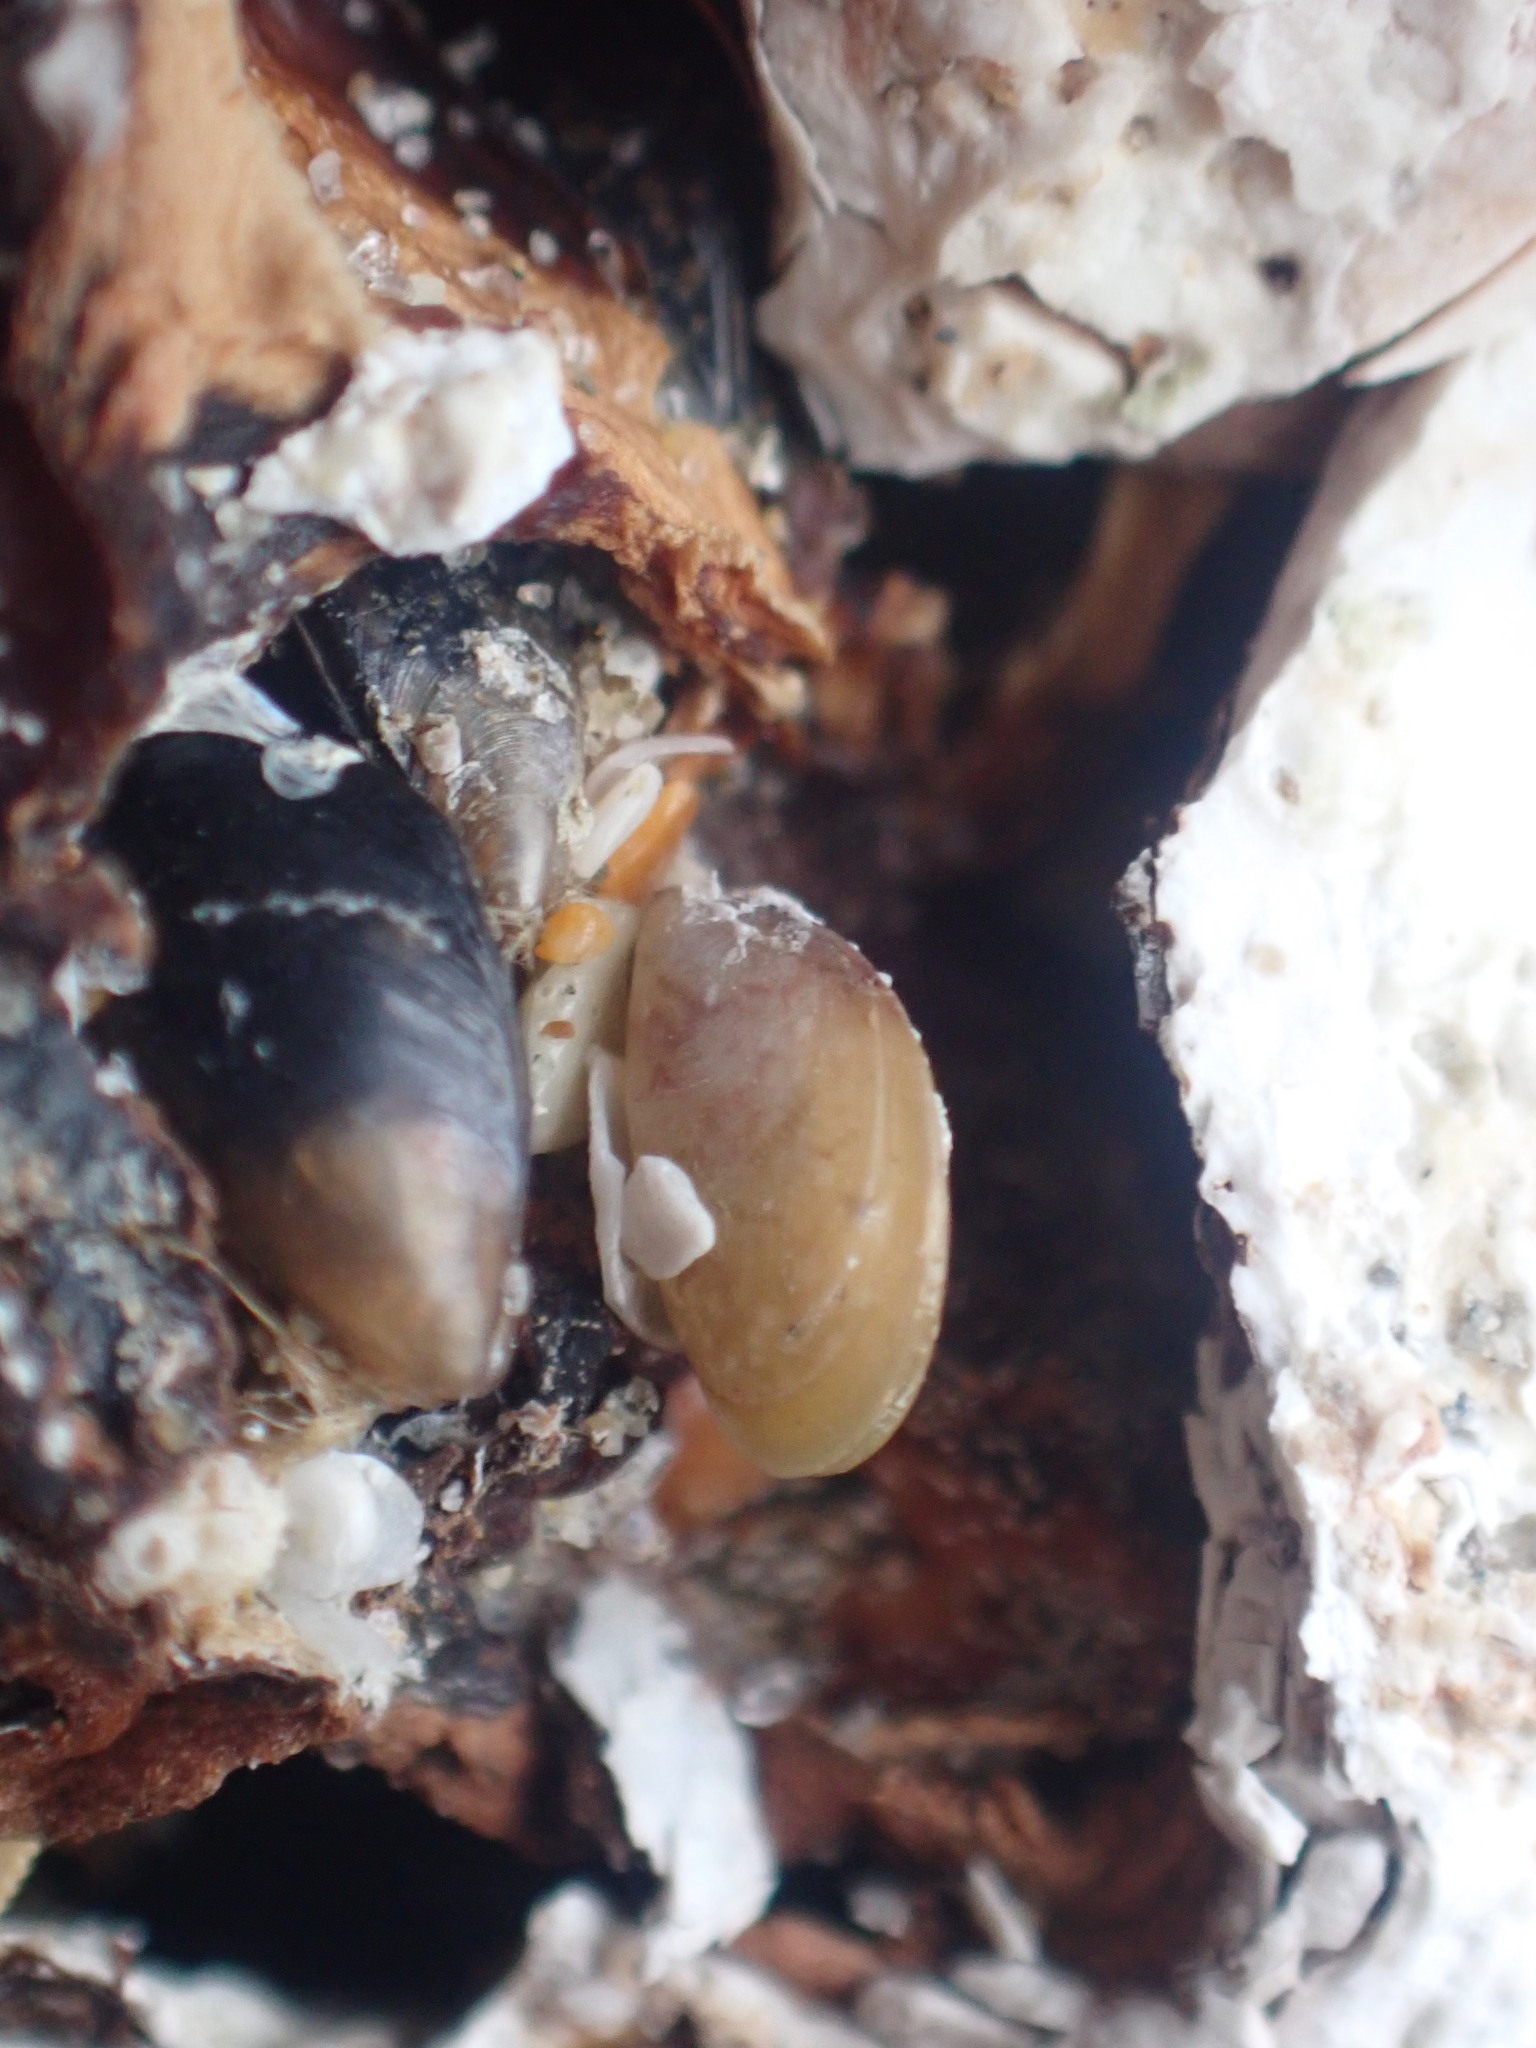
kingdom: Animalia
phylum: Mollusca
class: Bivalvia
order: Mytilida
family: Mytilidae
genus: Perna
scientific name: Perna canaliculus
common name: New zealand greenshelltm
